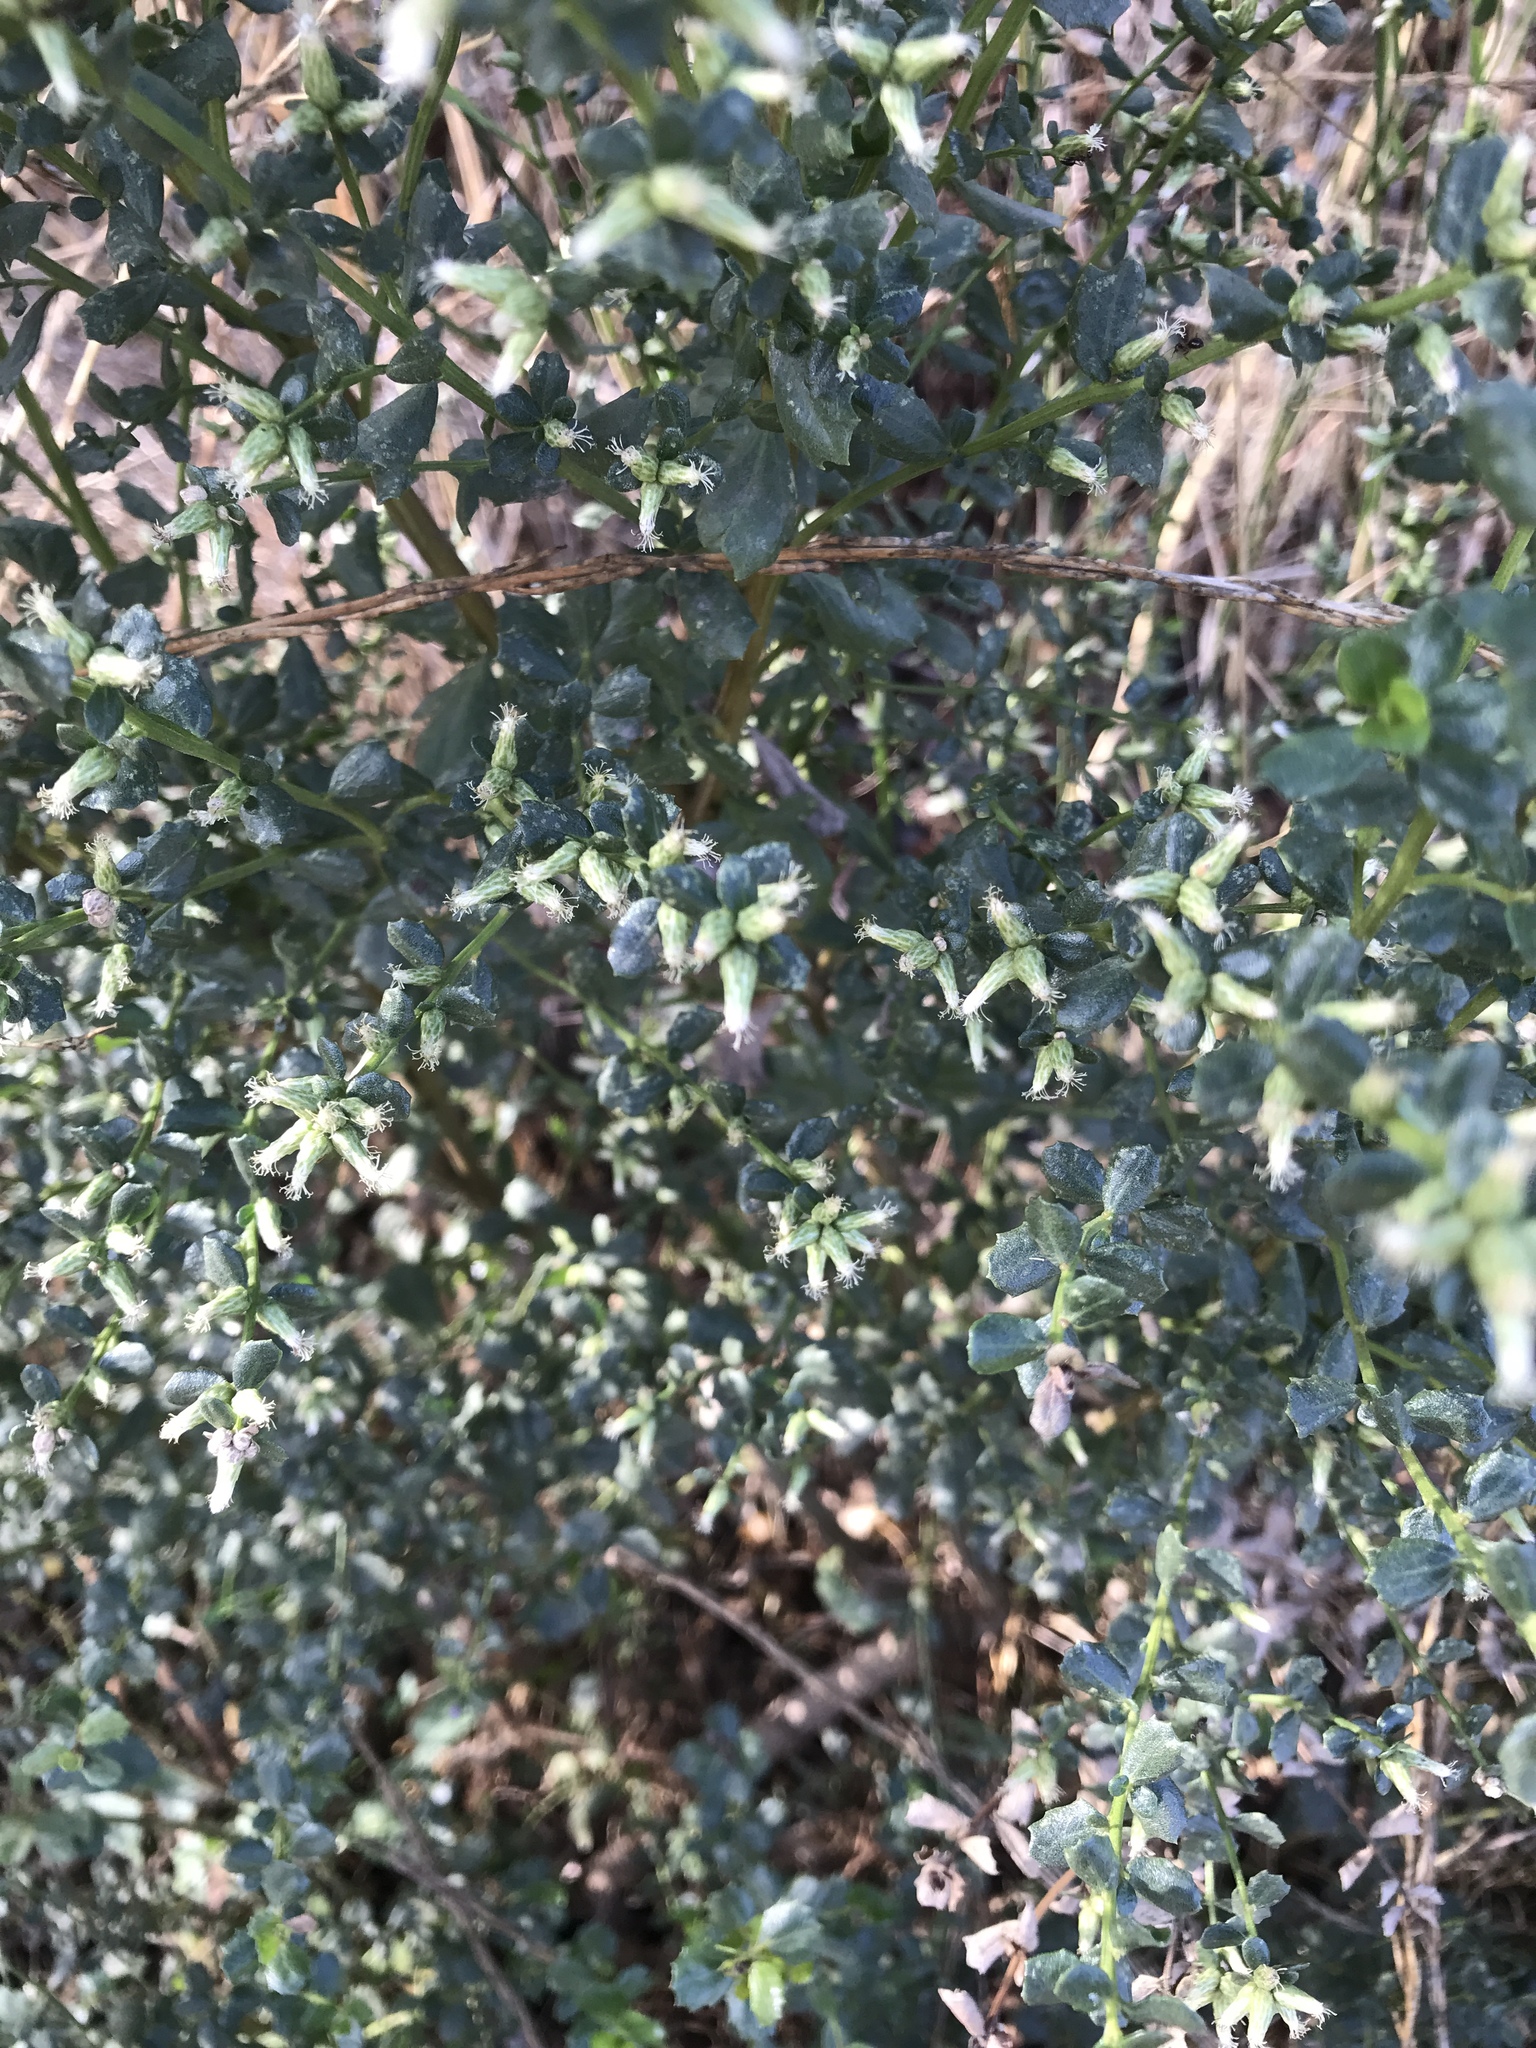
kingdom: Plantae
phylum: Tracheophyta
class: Magnoliopsida
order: Asterales
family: Asteraceae
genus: Baccharis
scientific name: Baccharis pilularis
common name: Coyotebrush
